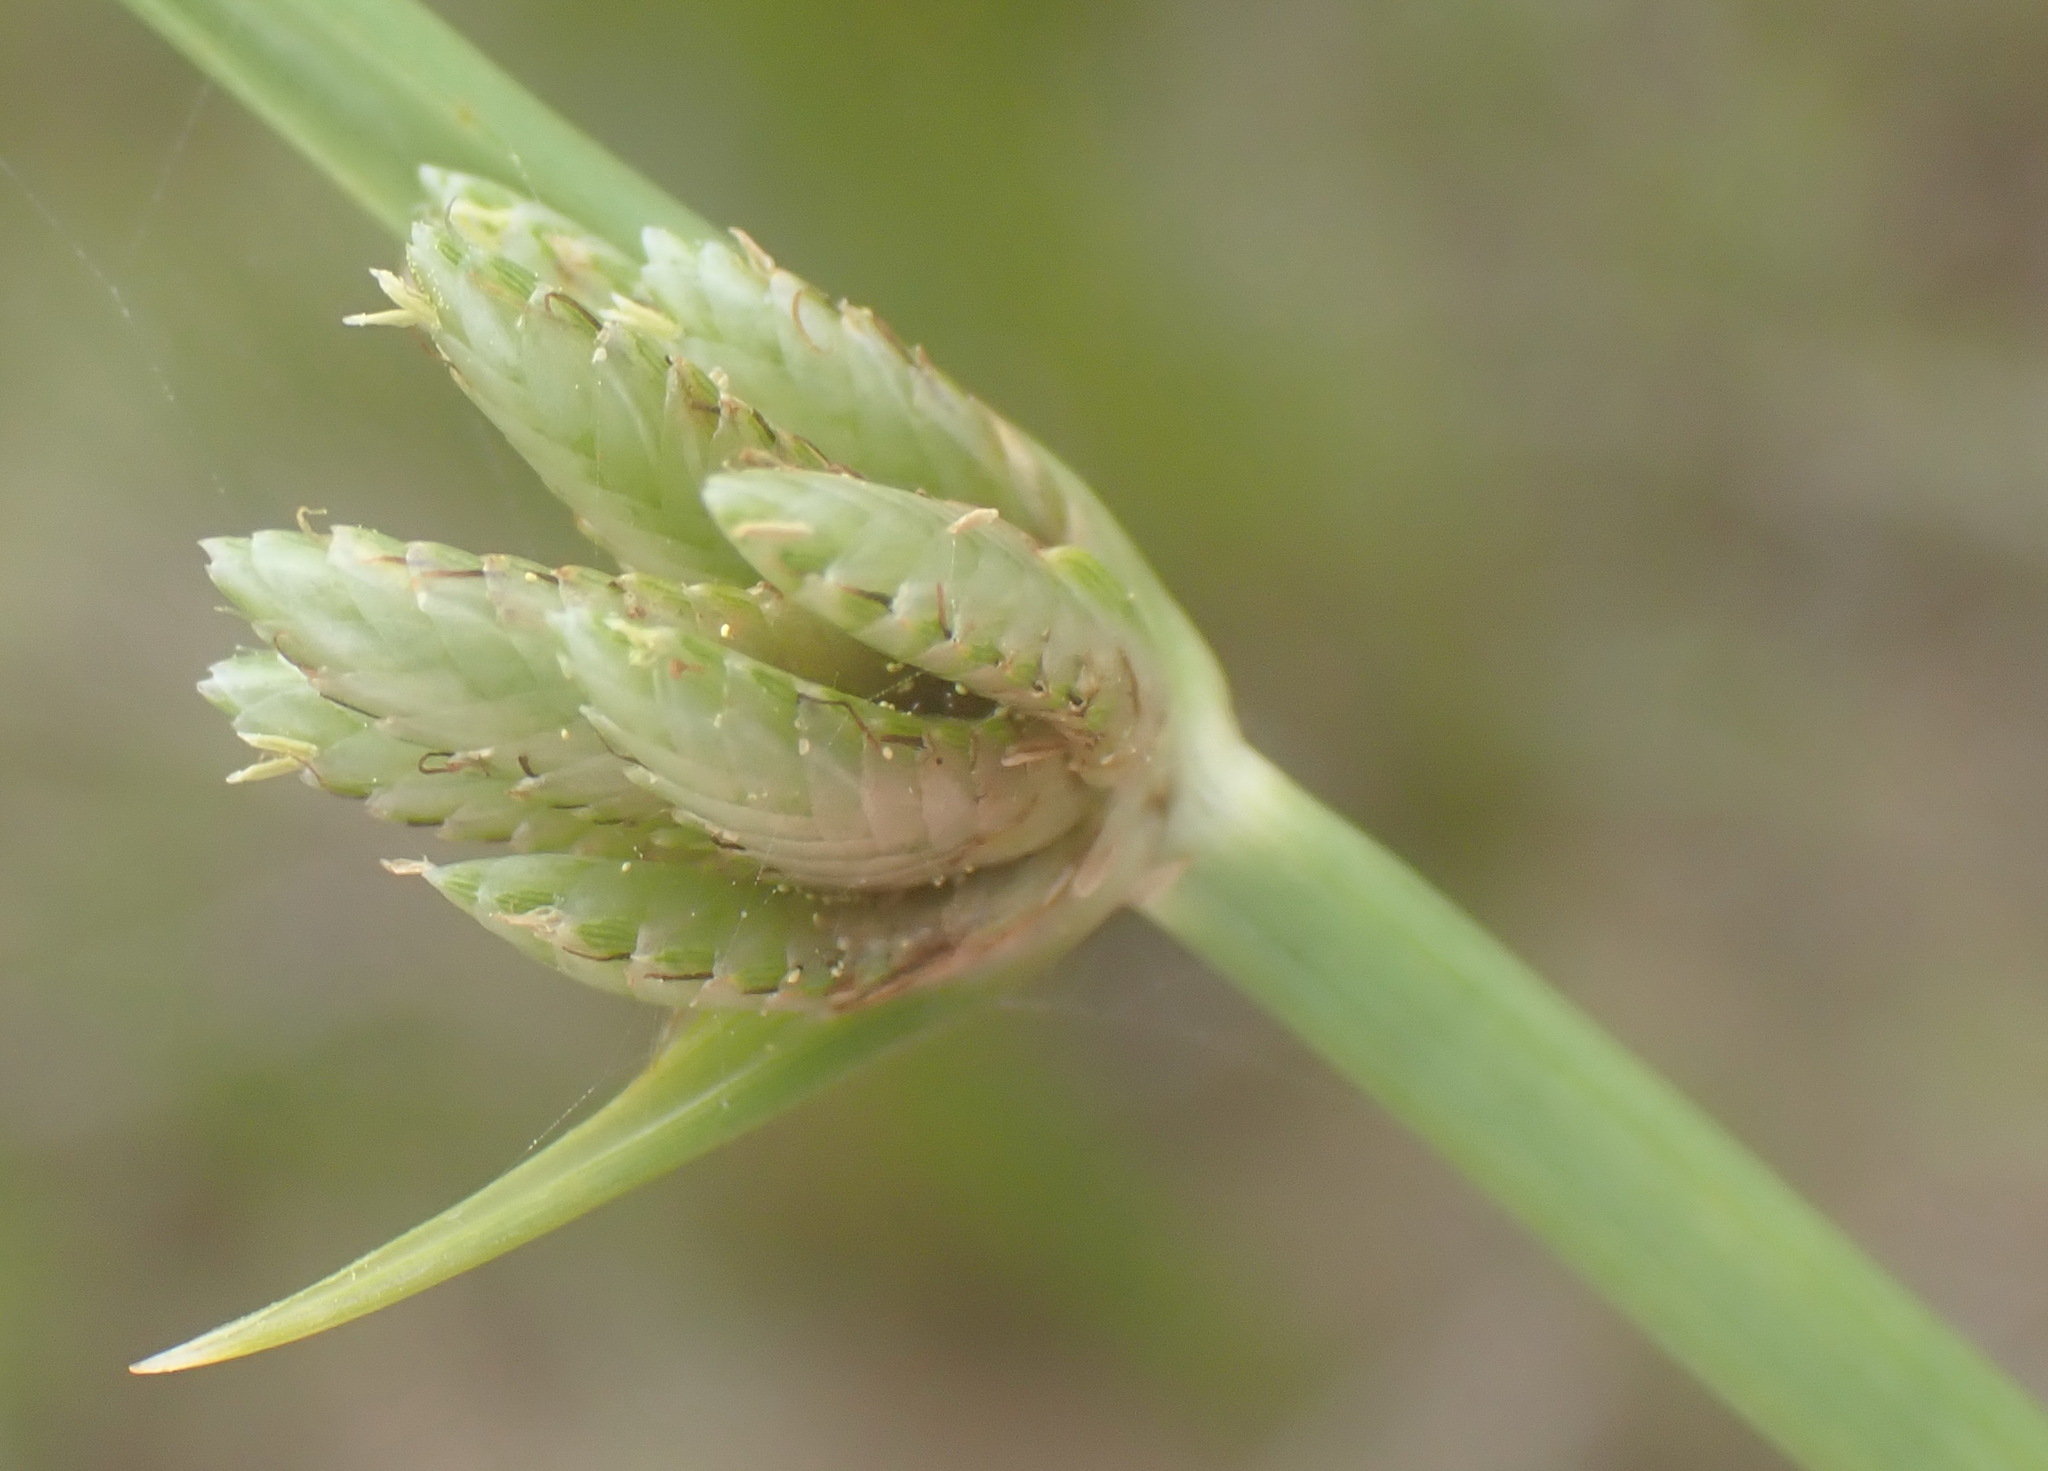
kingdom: Plantae
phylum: Tracheophyta
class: Liliopsida
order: Poales
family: Cyperaceae
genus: Cyperus
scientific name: Cyperus laevigatus
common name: Smooth flat sedge
